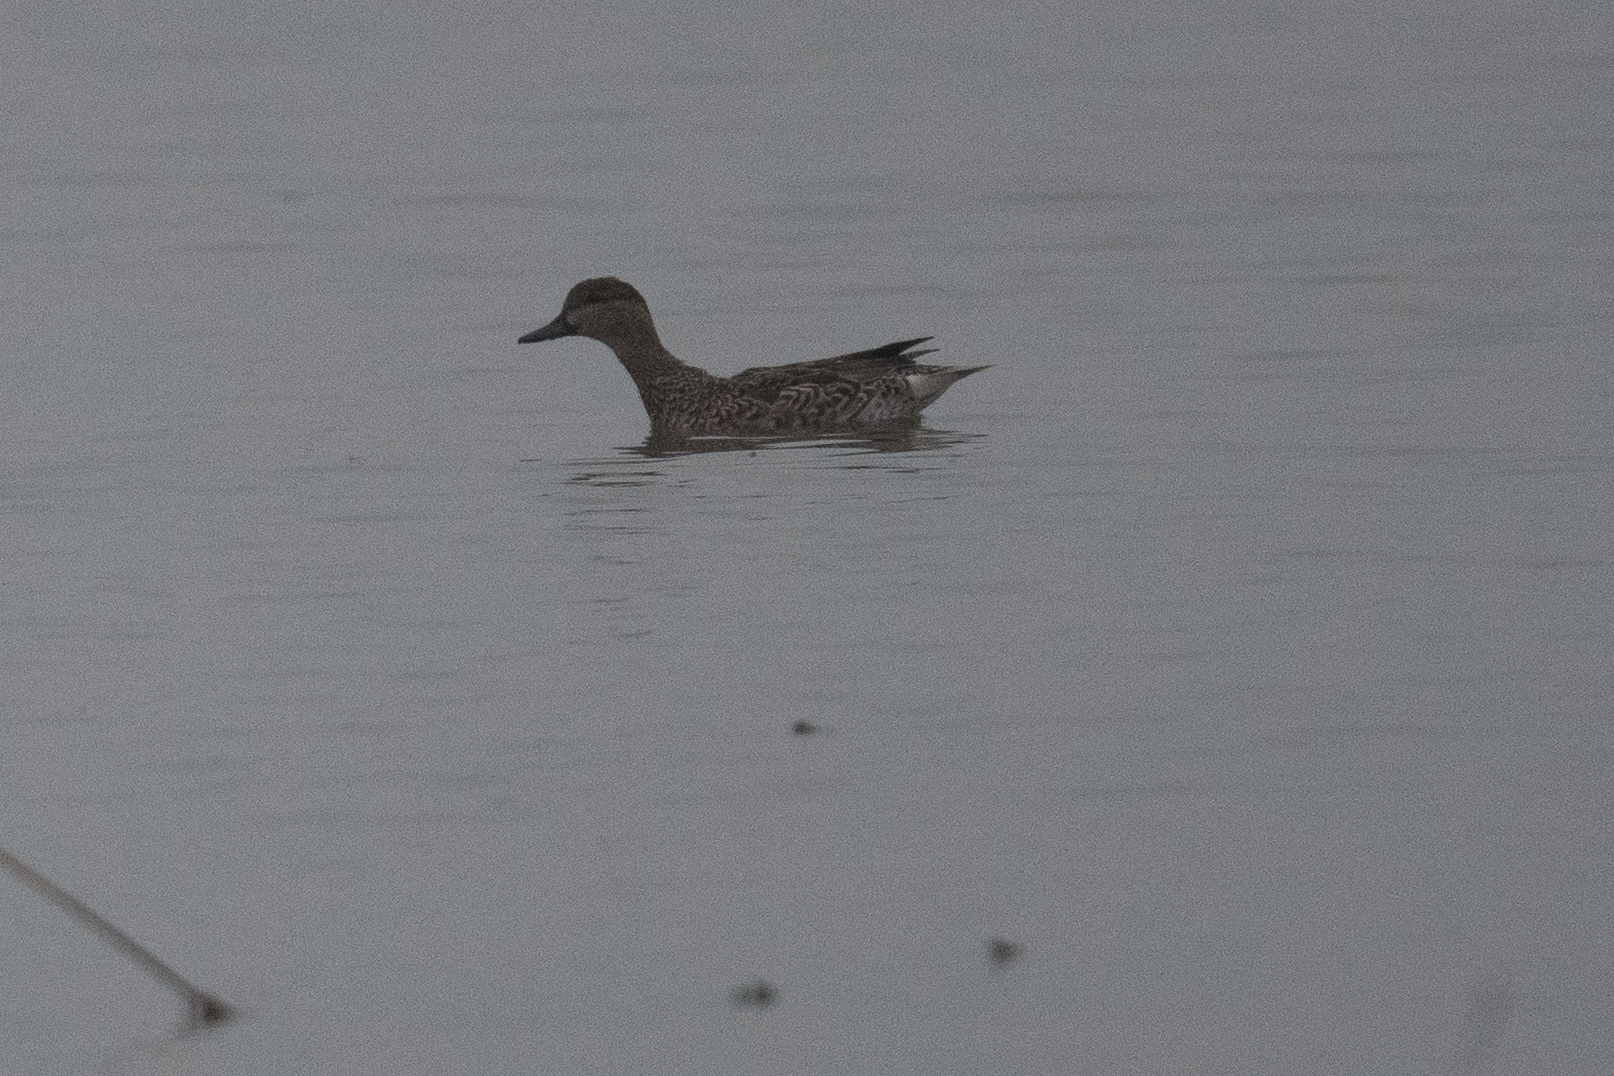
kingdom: Animalia
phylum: Chordata
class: Aves
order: Anseriformes
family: Anatidae
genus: Anas
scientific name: Anas crecca
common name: Eurasian teal
